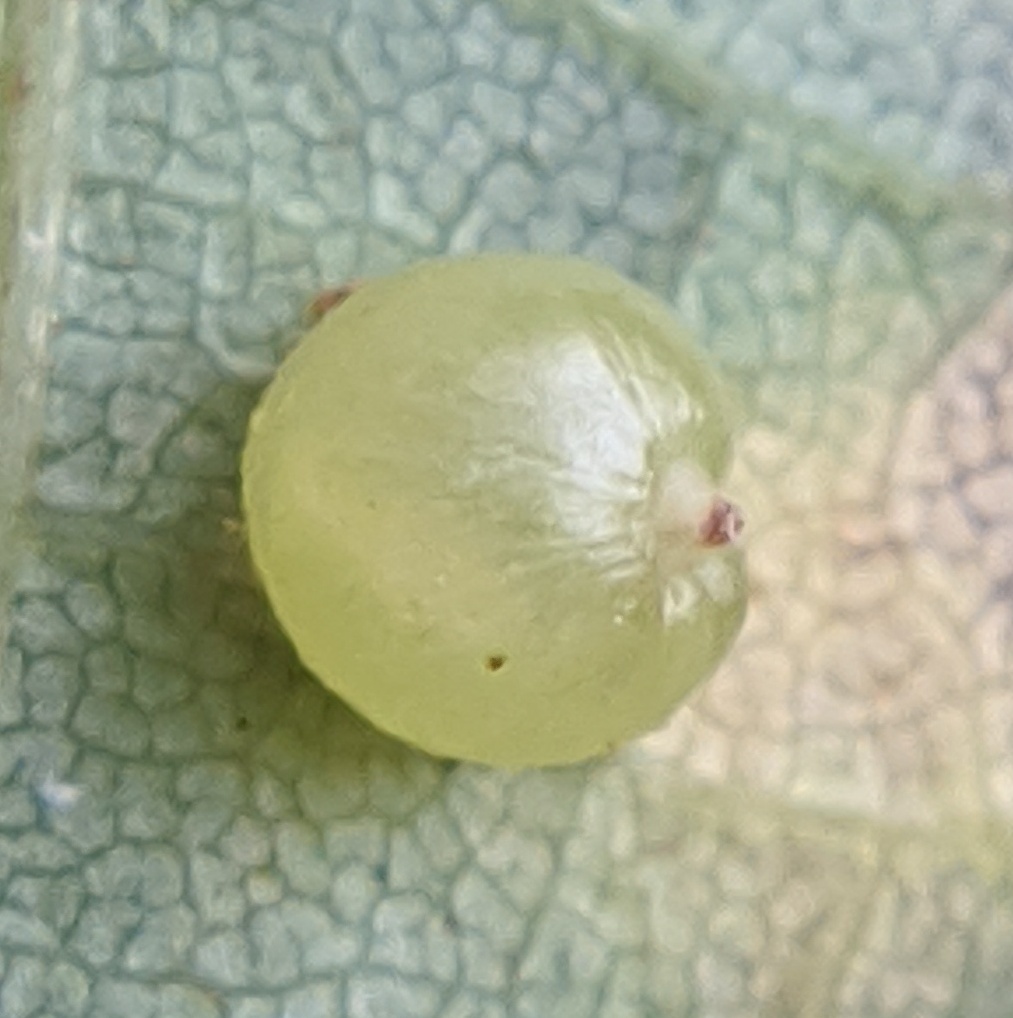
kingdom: Animalia
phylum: Arthropoda
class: Insecta
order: Diptera
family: Cecidomyiidae
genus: Caryomyia
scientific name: Caryomyia deflexipili
